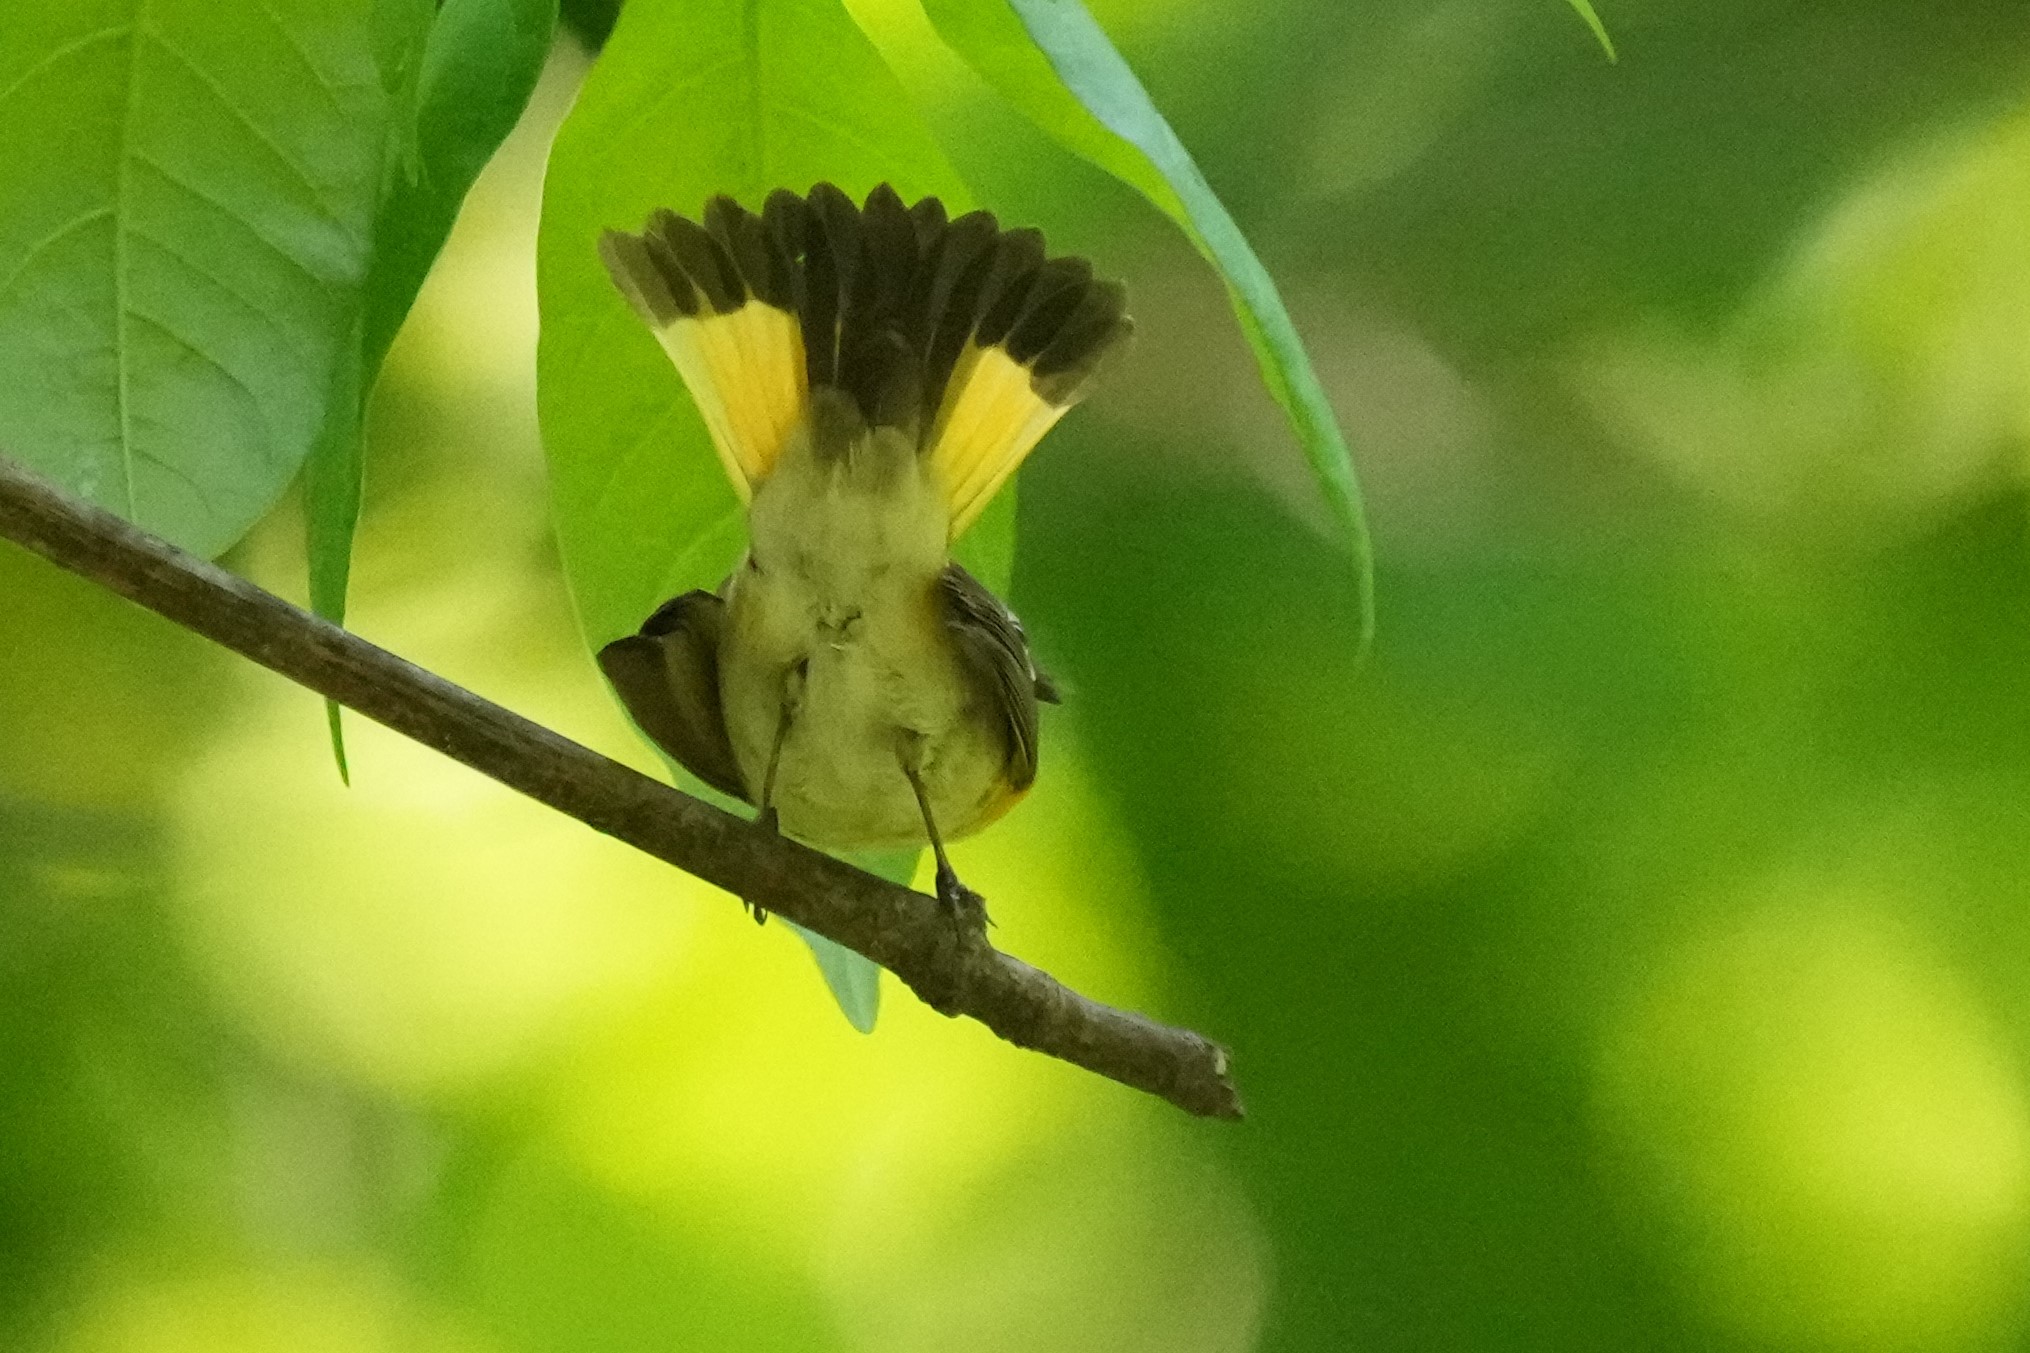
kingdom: Animalia
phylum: Chordata
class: Aves
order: Passeriformes
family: Parulidae
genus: Setophaga
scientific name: Setophaga ruticilla
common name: American redstart
